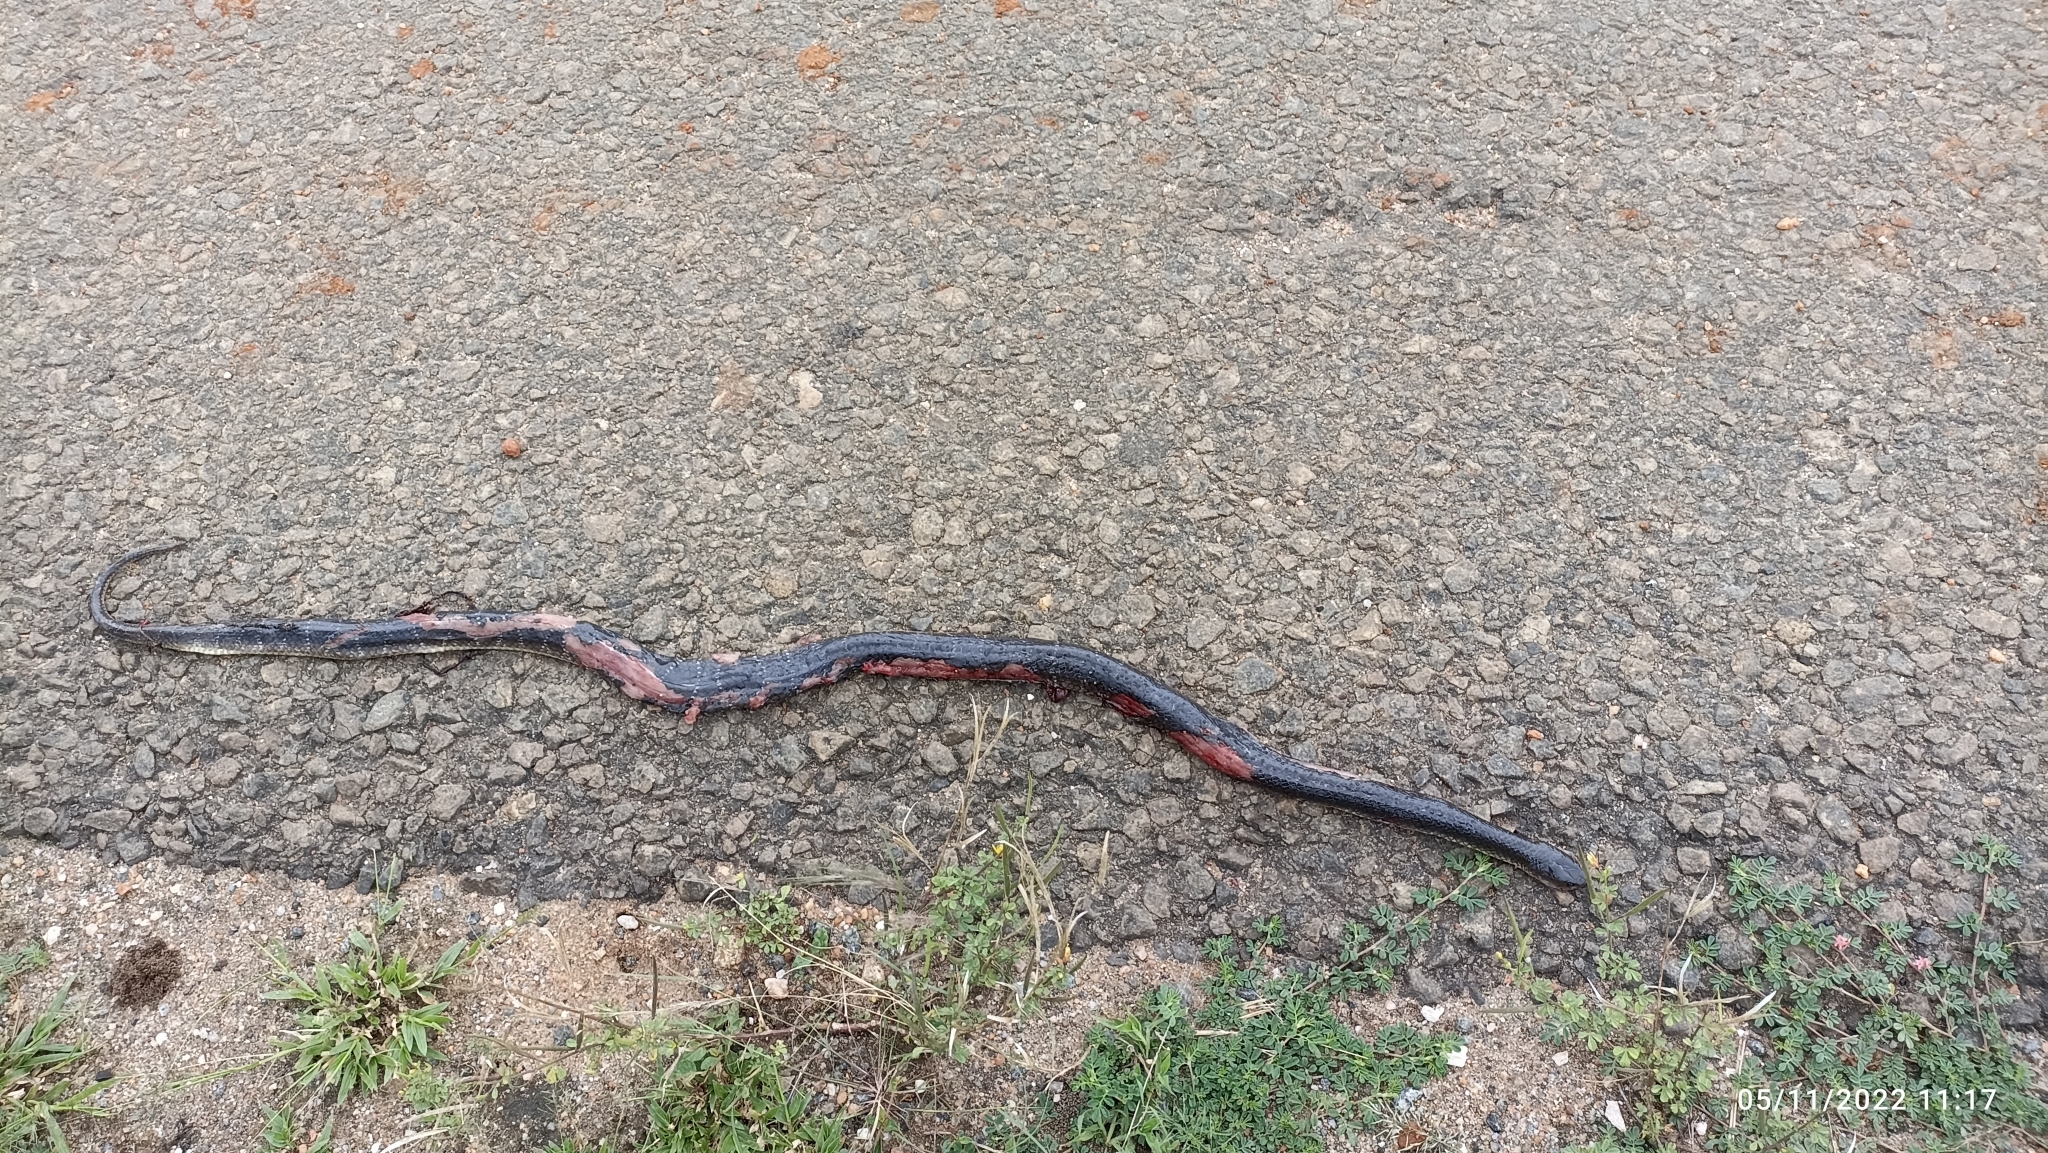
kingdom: Animalia
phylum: Chordata
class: Squamata
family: Elapidae
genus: Bungarus
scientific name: Bungarus caeruleus
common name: Common krait
